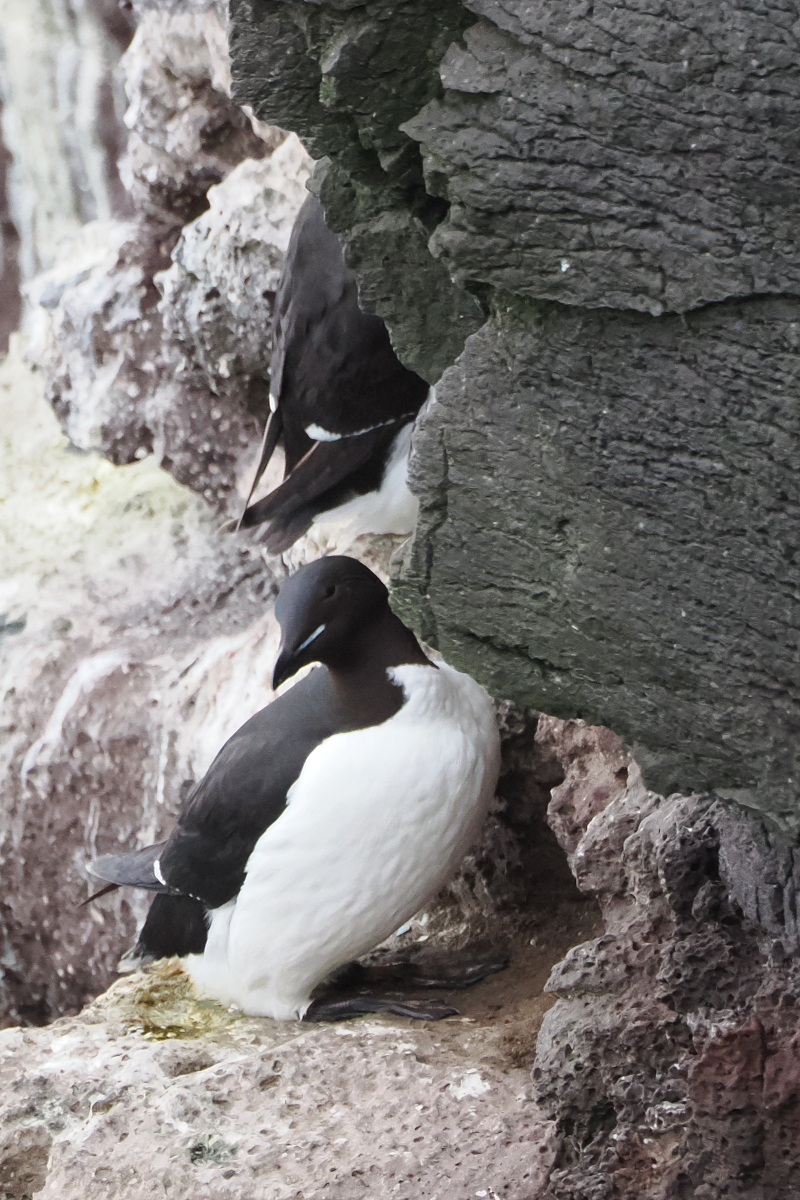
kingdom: Animalia
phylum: Chordata
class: Aves
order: Charadriiformes
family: Alcidae
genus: Uria
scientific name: Uria lomvia
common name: Thick-billed murre
